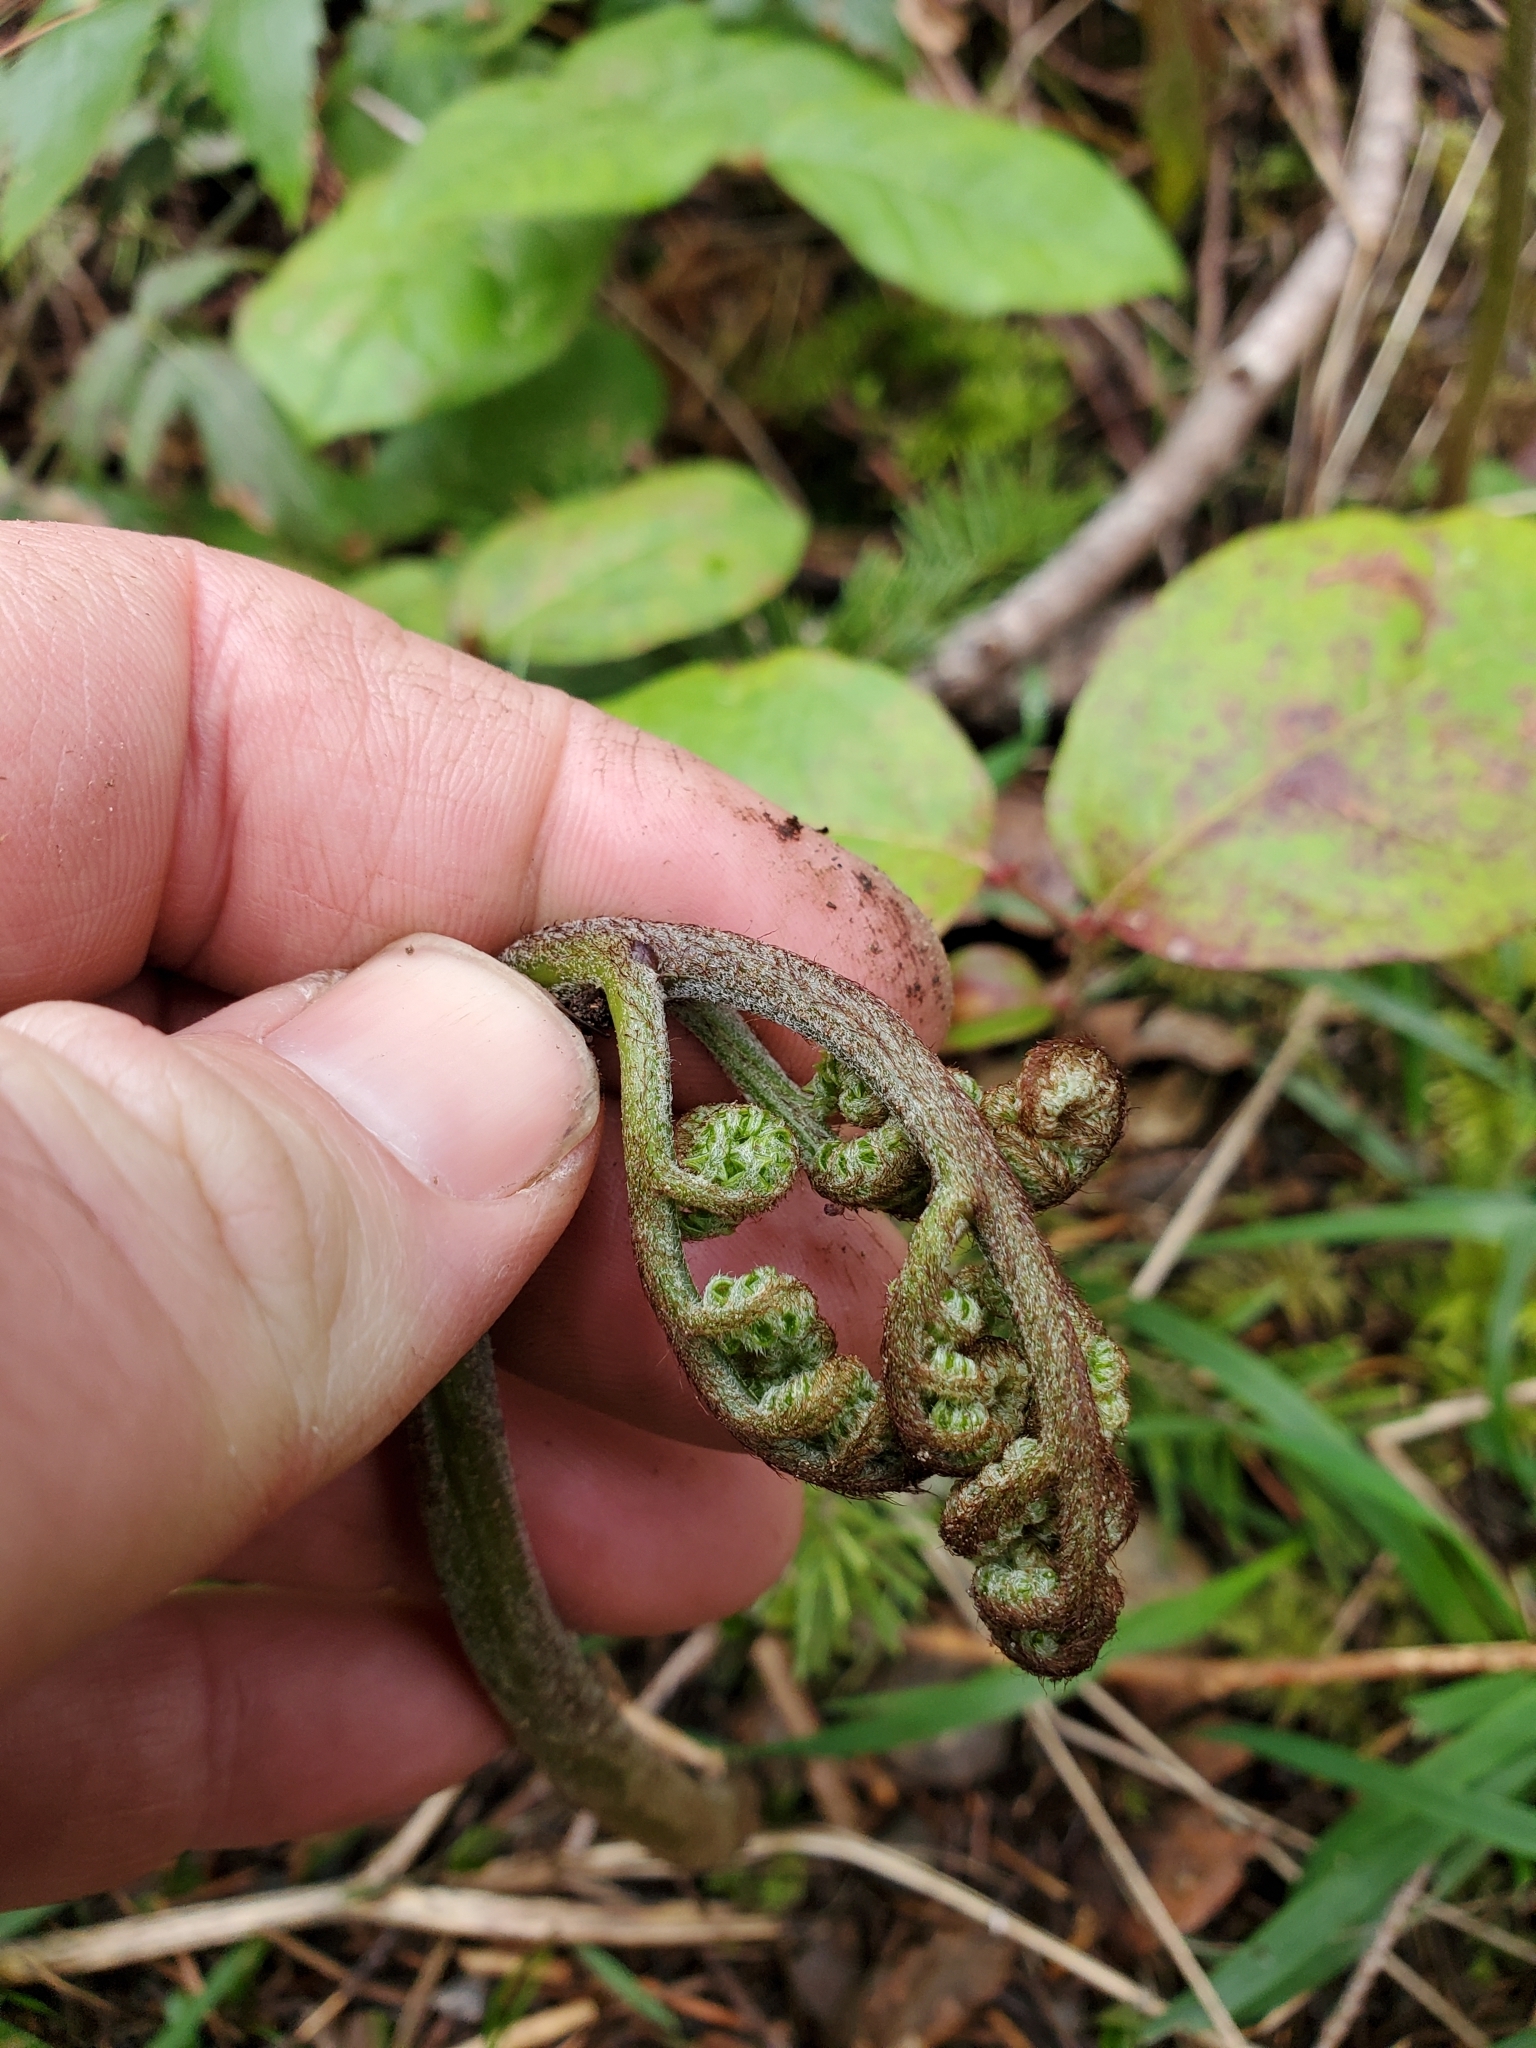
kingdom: Plantae
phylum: Tracheophyta
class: Polypodiopsida
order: Polypodiales
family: Dennstaedtiaceae
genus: Pteridium
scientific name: Pteridium aquilinum
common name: Bracken
